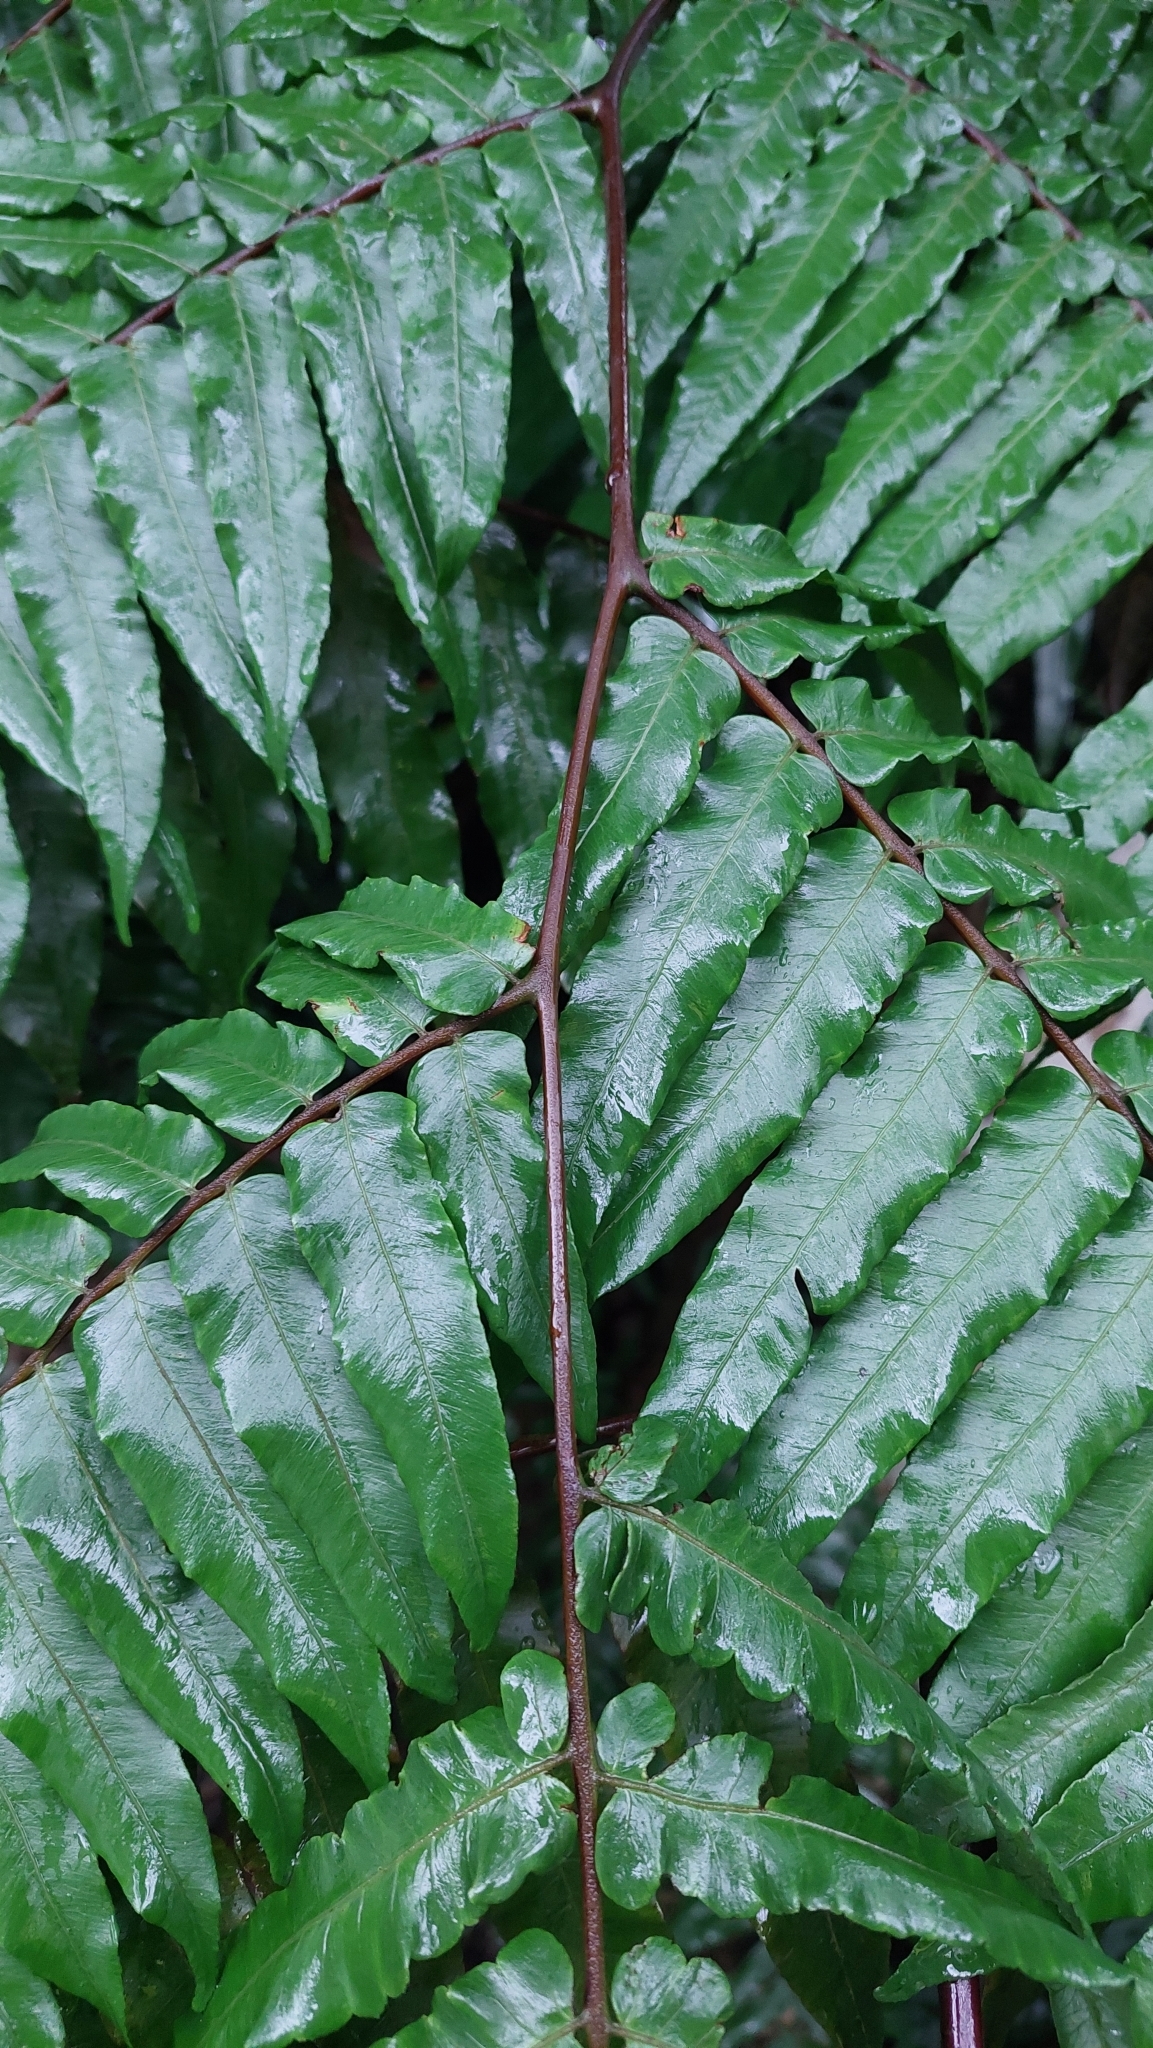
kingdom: Plantae
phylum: Tracheophyta
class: Polypodiopsida
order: Marattiales
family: Marattiaceae
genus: Angiopteris
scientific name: Angiopteris lygodiifolia
